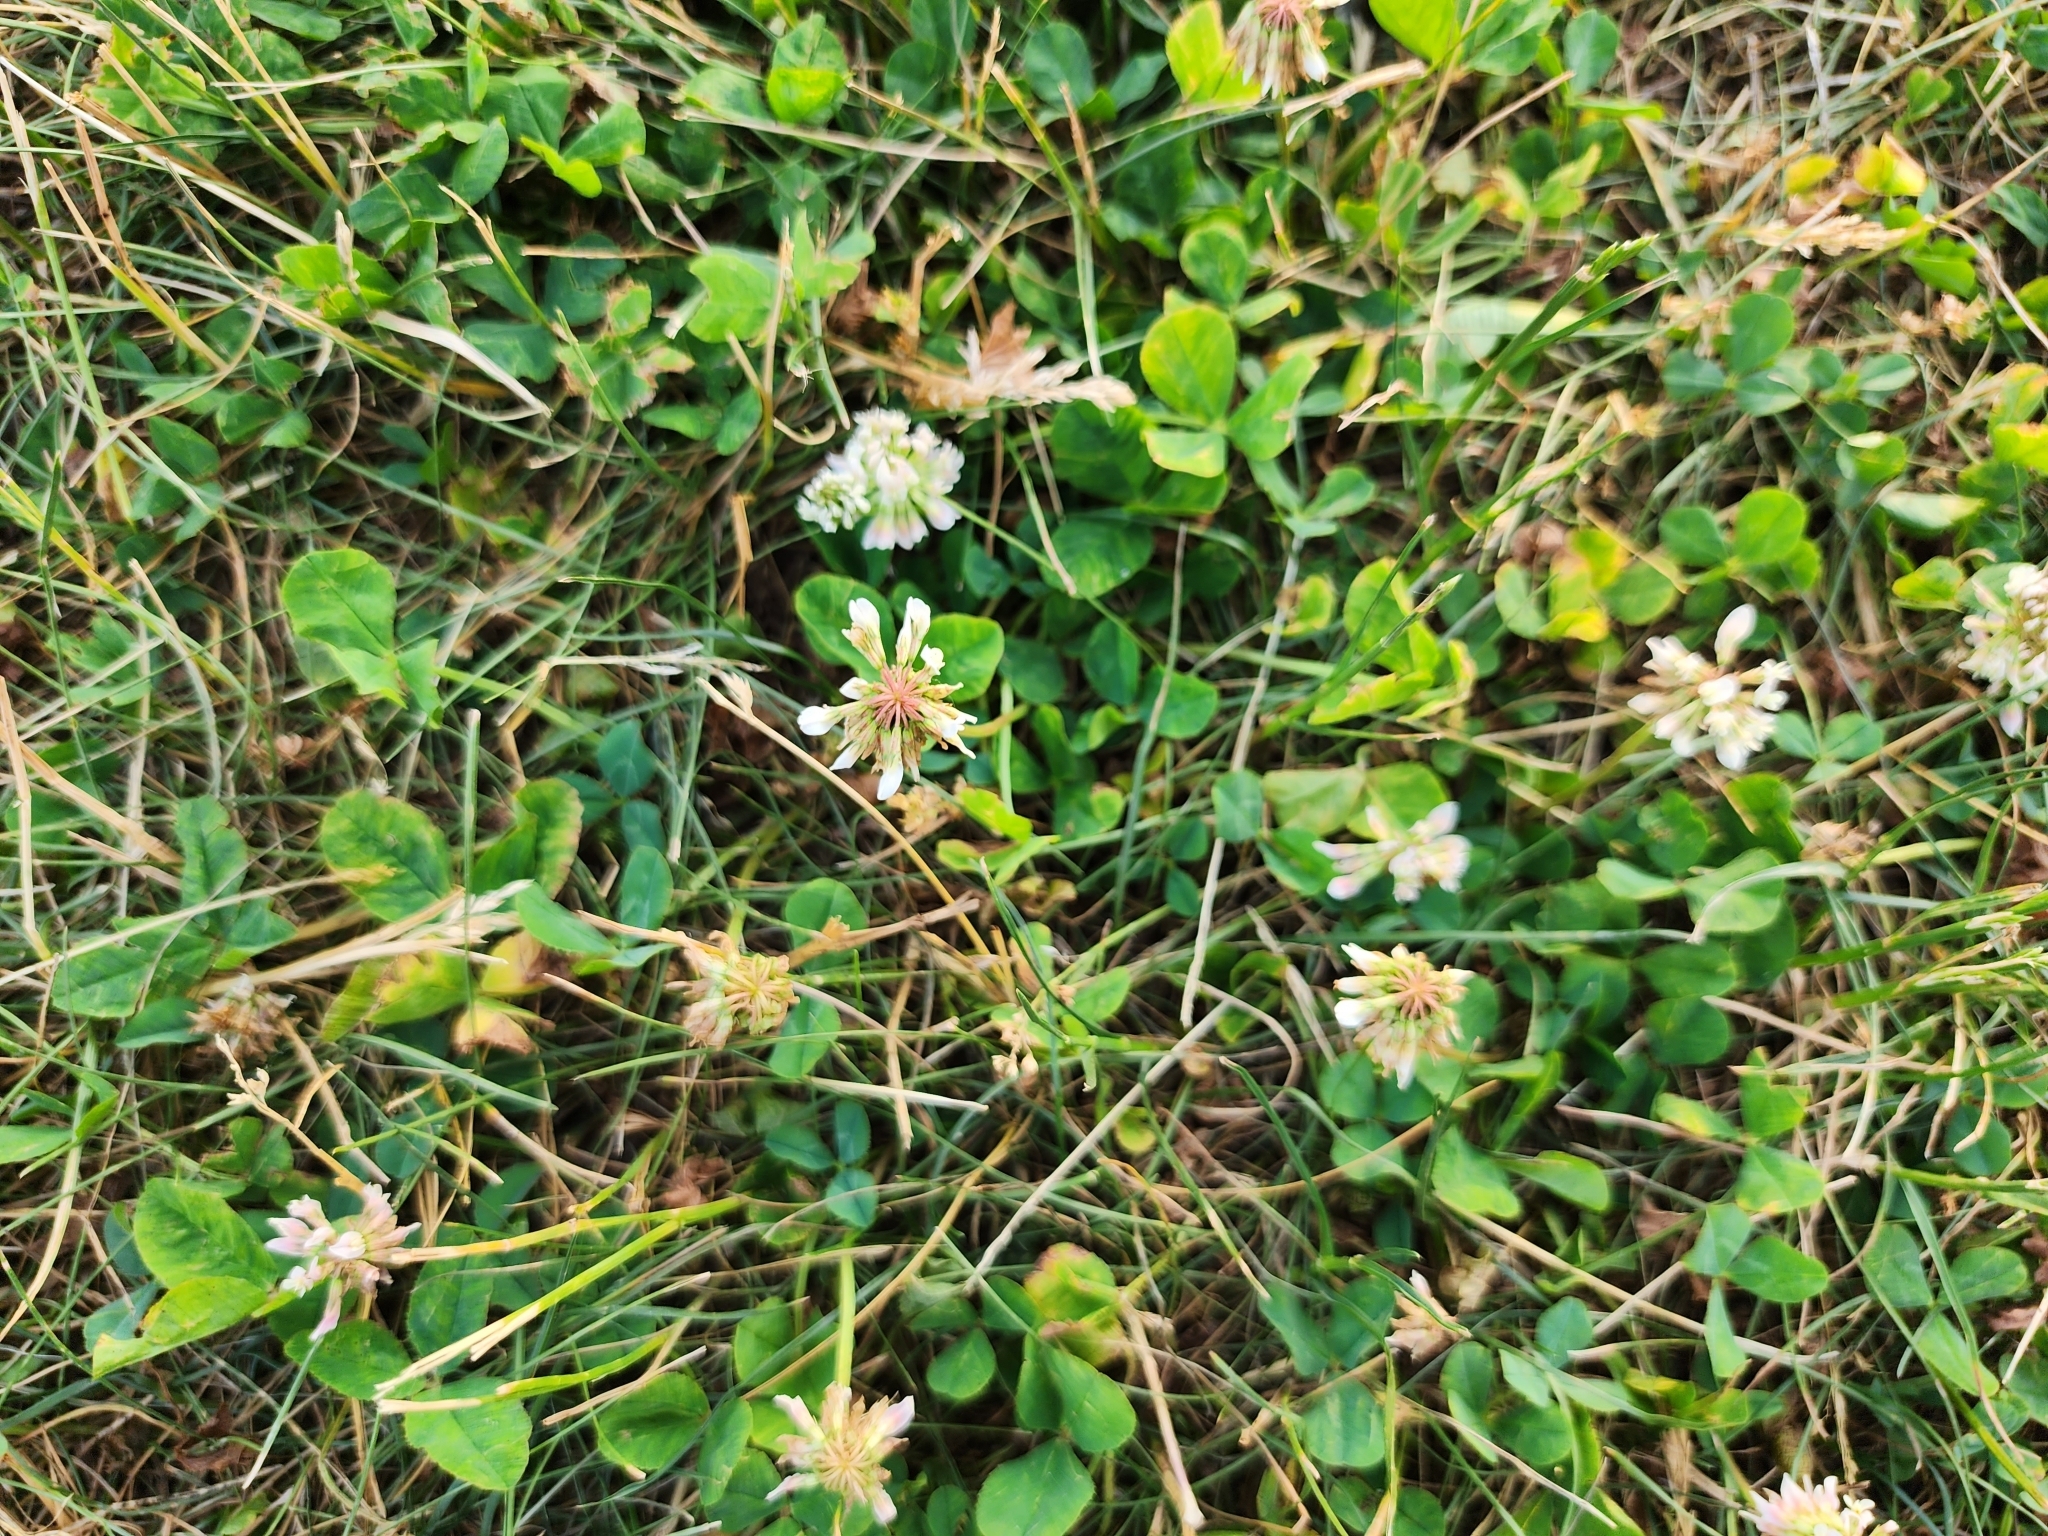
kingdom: Plantae
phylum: Tracheophyta
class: Magnoliopsida
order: Fabales
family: Fabaceae
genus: Trifolium
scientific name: Trifolium repens
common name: White clover
